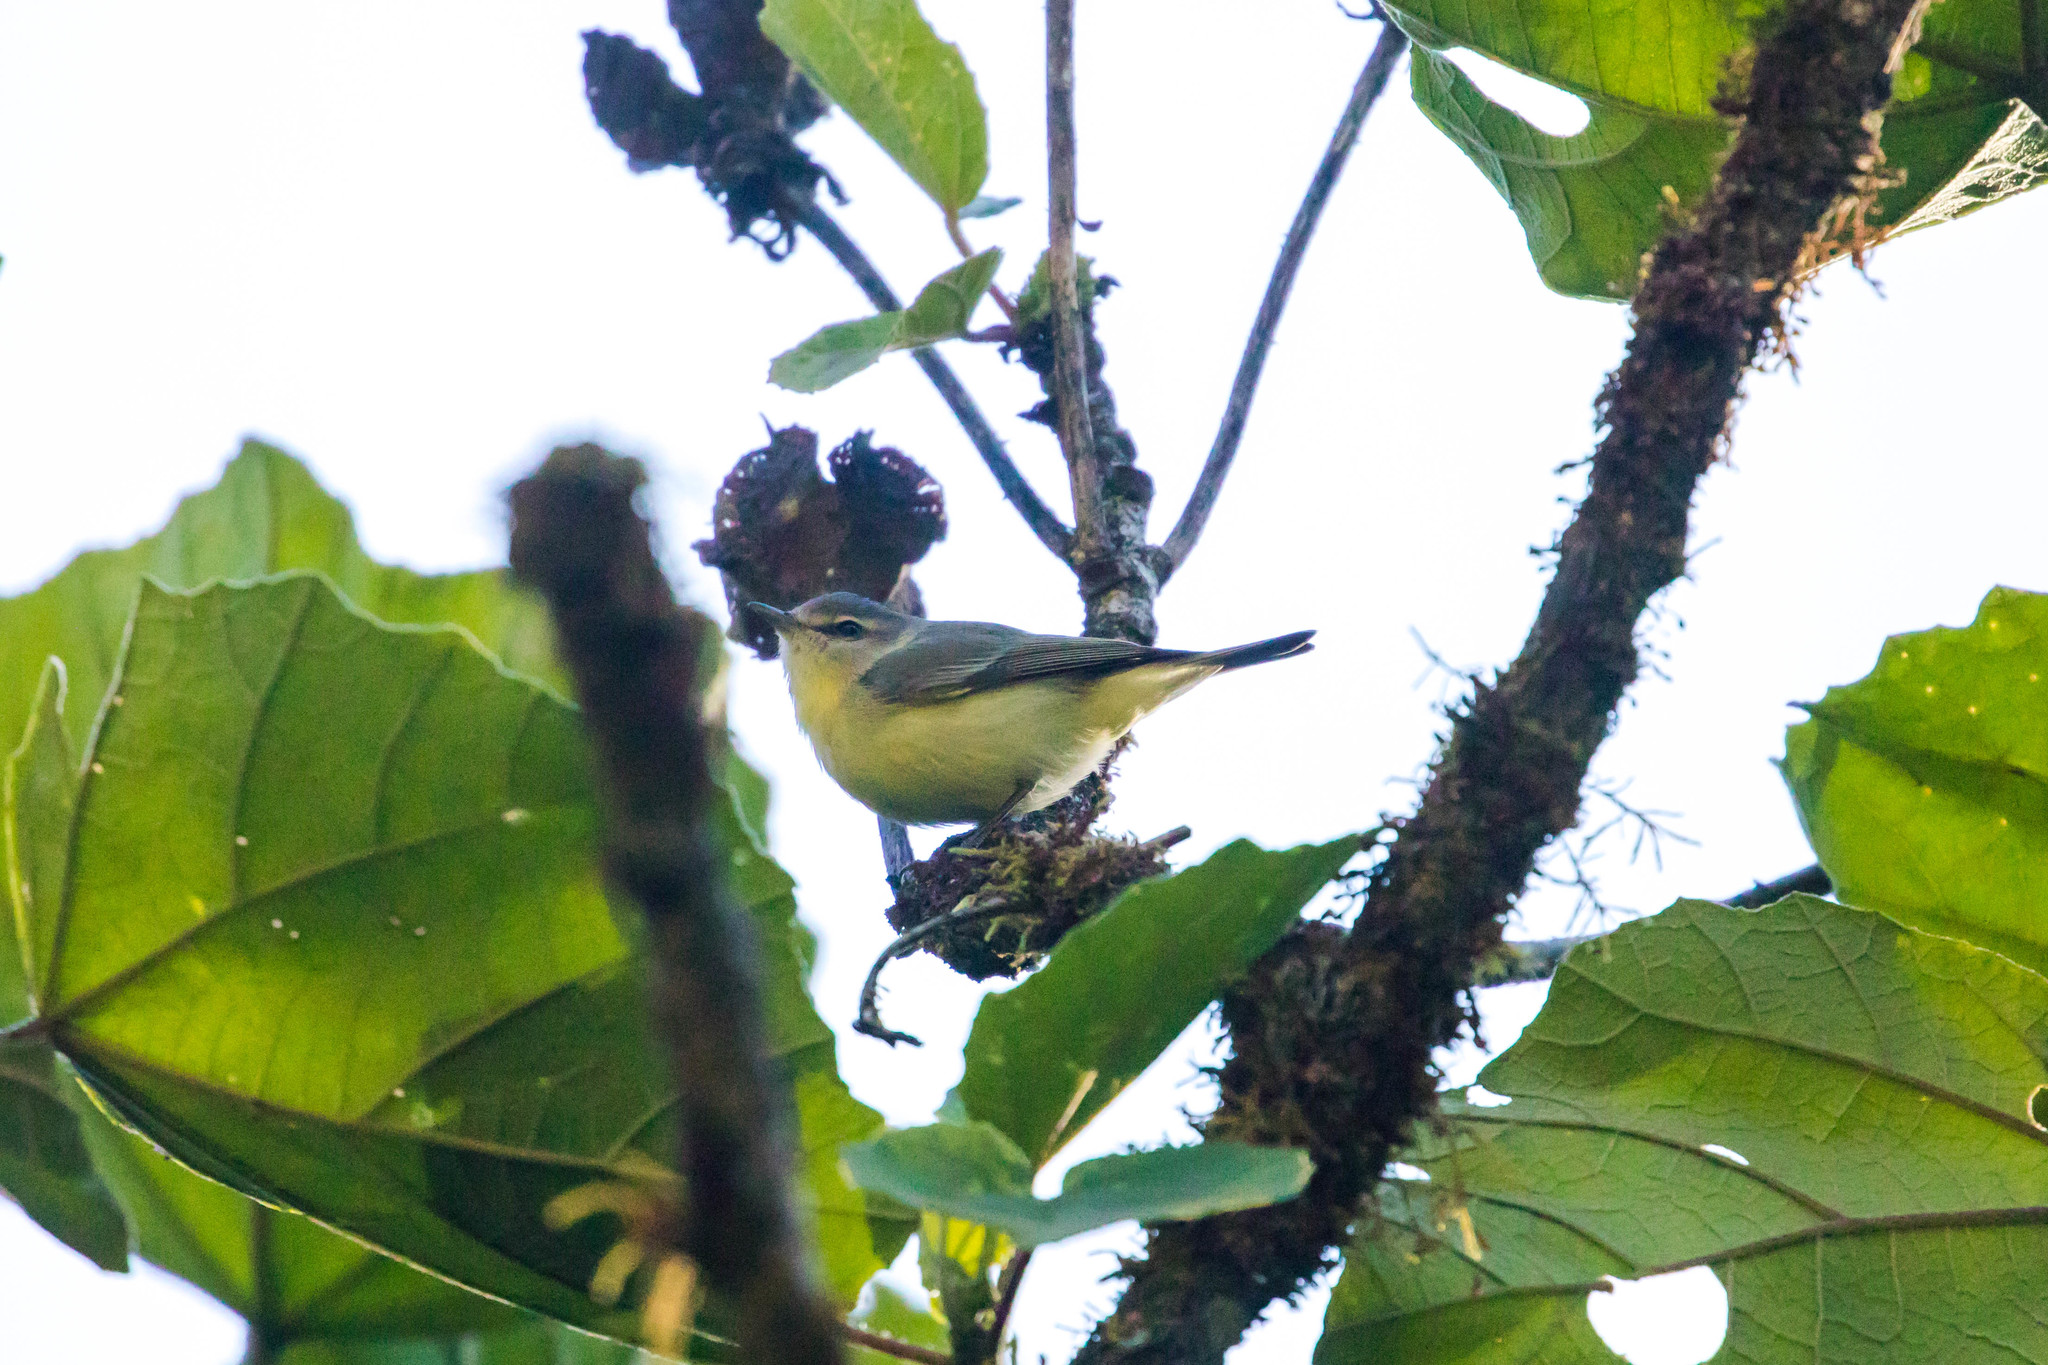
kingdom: Animalia
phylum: Chordata
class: Aves
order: Passeriformes
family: Vireonidae
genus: Vireo
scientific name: Vireo philadelphicus
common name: Philadelphia vireo
